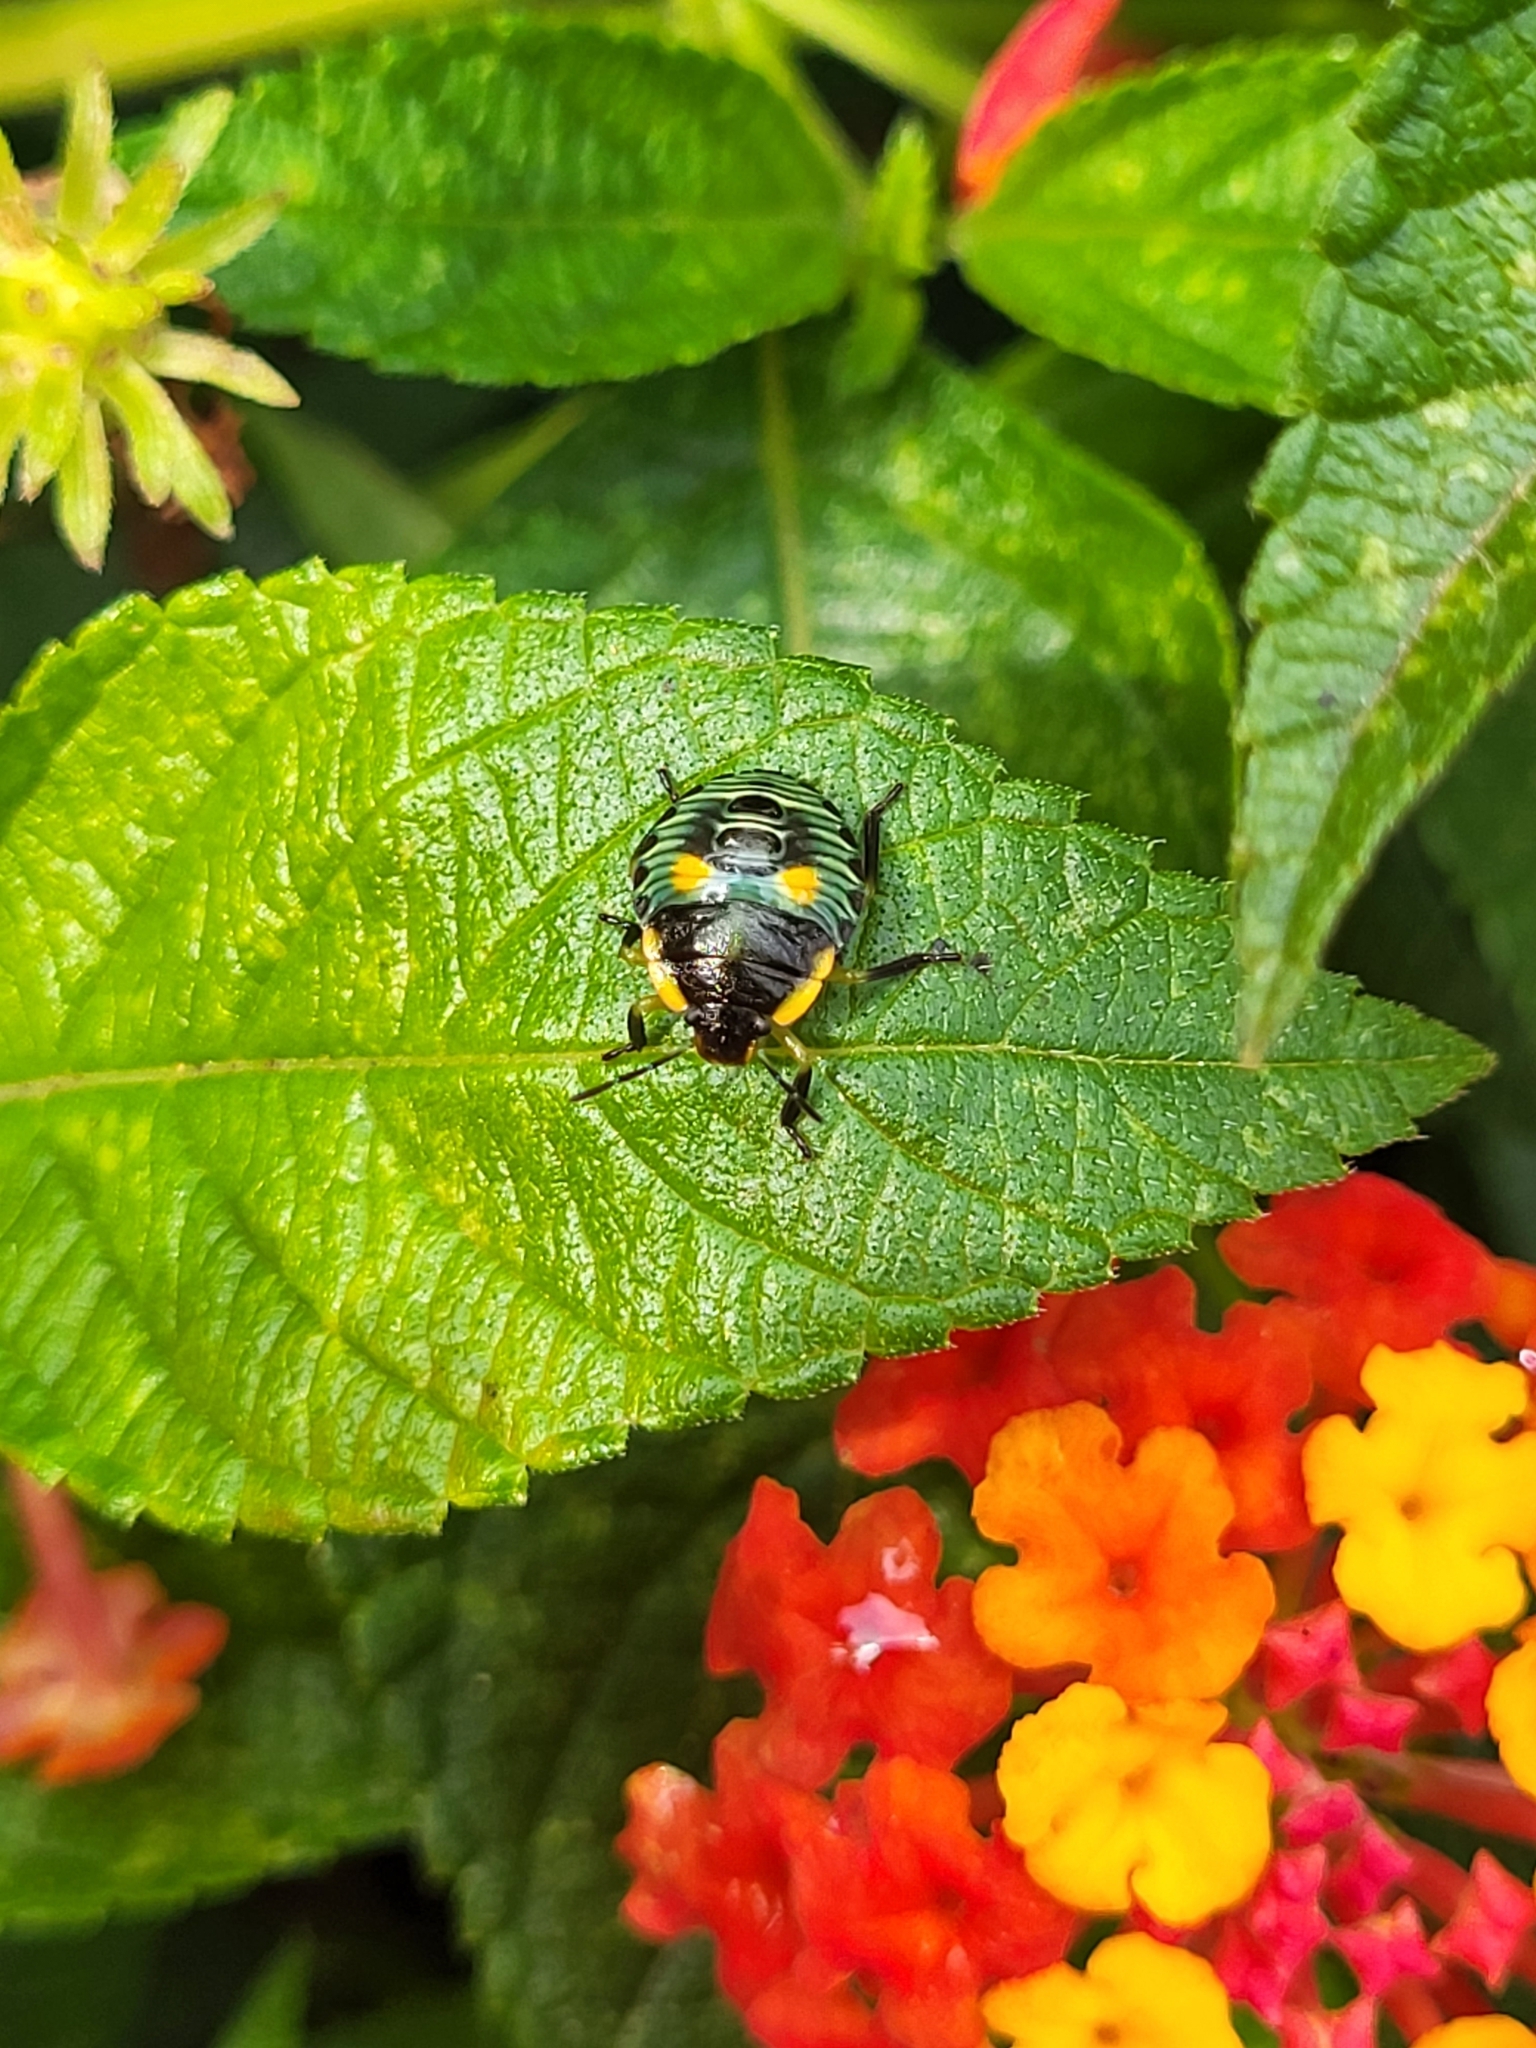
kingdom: Animalia
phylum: Arthropoda
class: Insecta
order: Hemiptera
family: Pentatomidae
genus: Chinavia
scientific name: Chinavia hilaris
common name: Green stink bug
